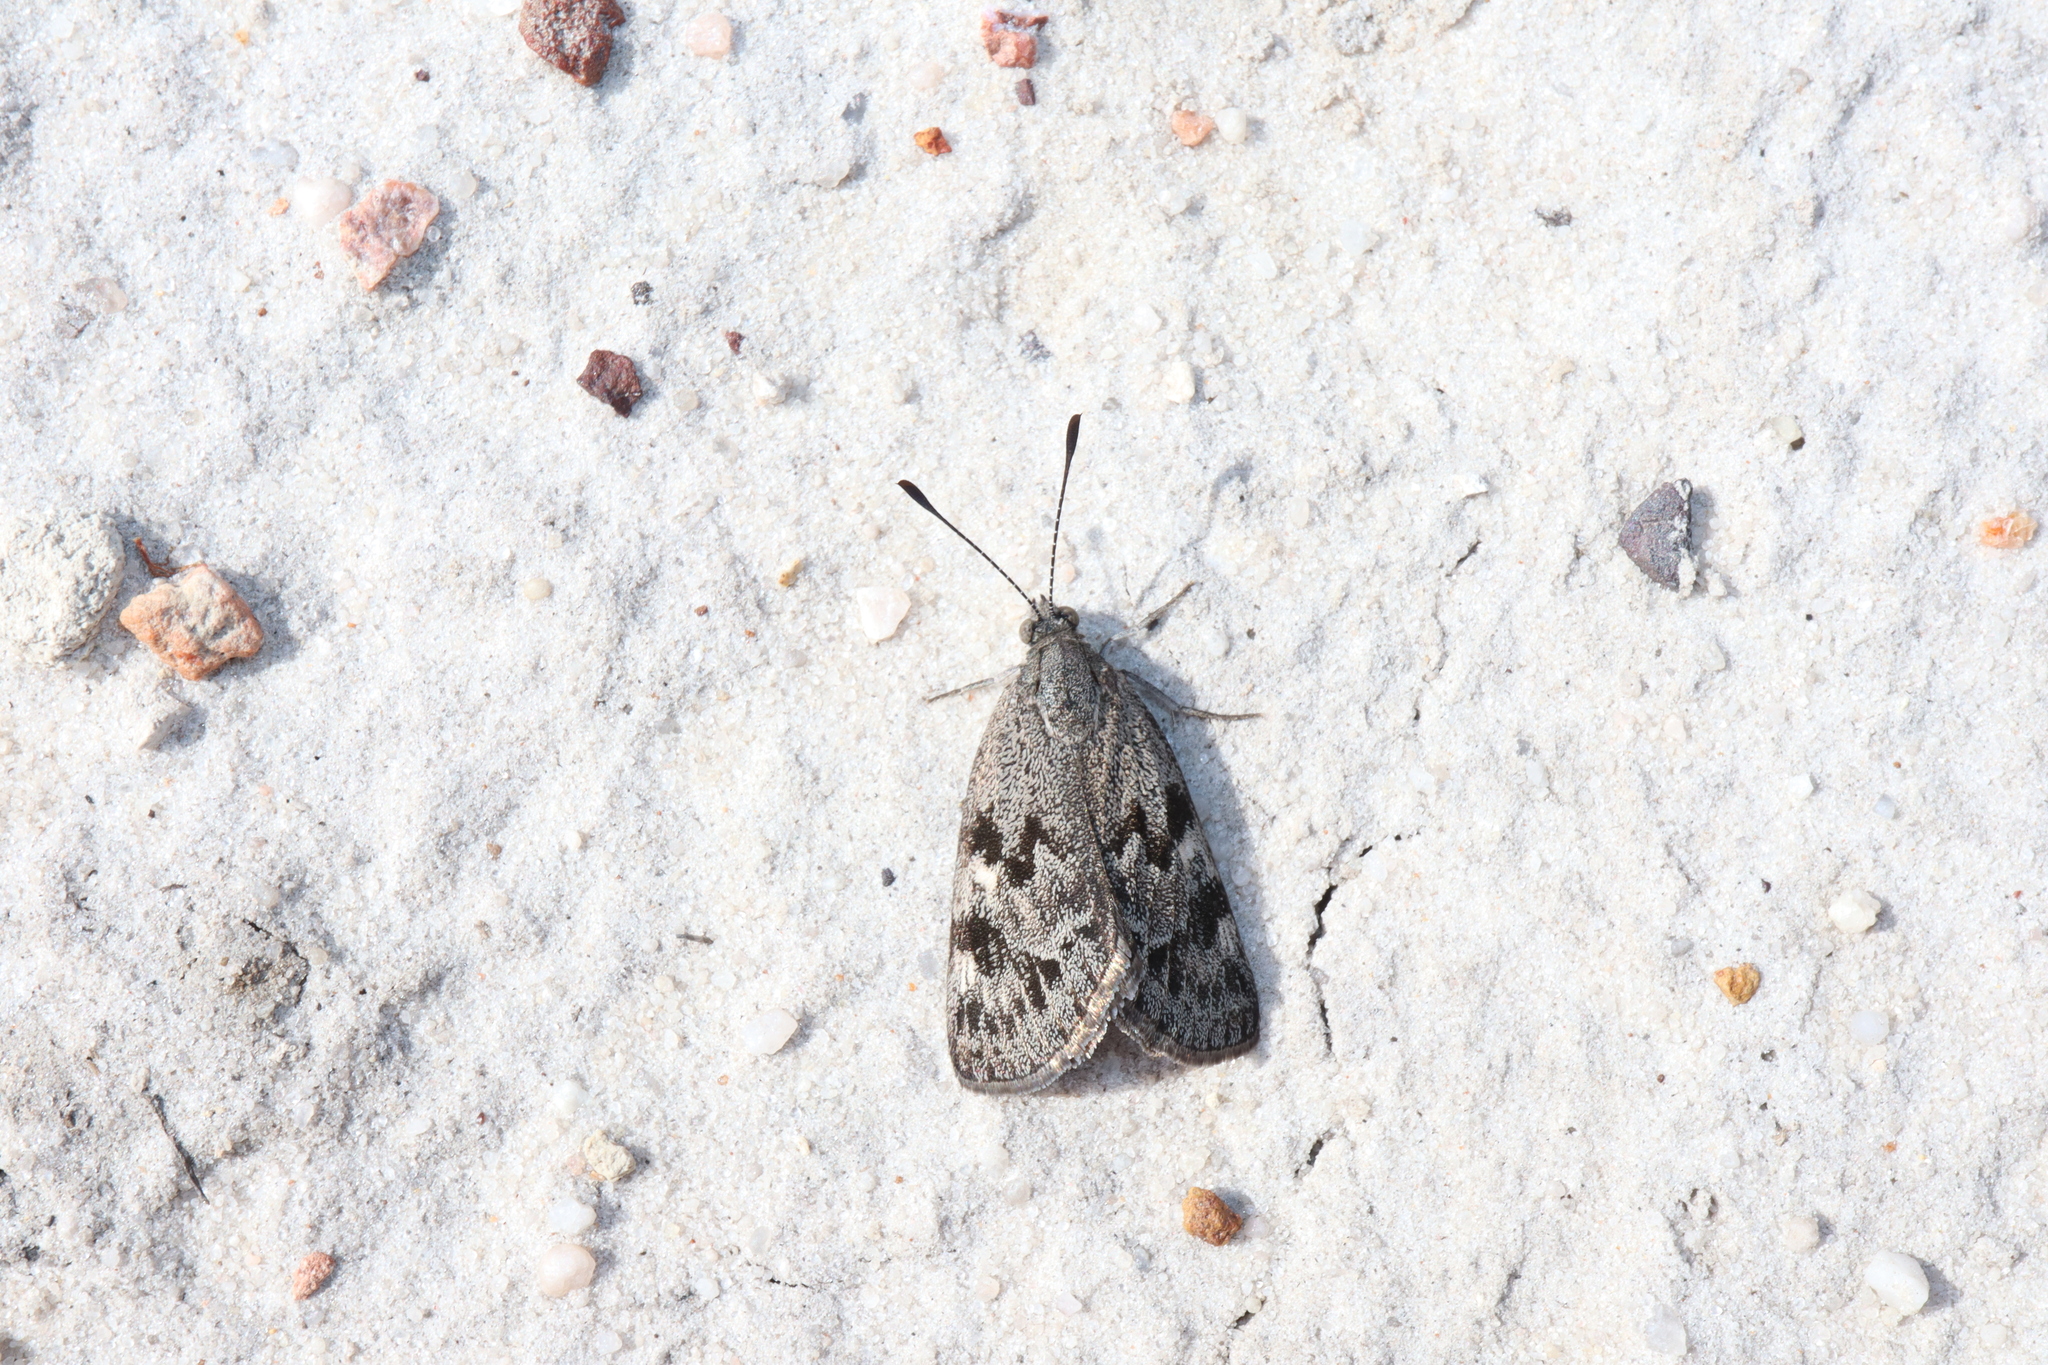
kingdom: Animalia
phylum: Arthropoda
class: Insecta
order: Lepidoptera
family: Castniidae
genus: Synemon
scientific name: Synemon discalis
